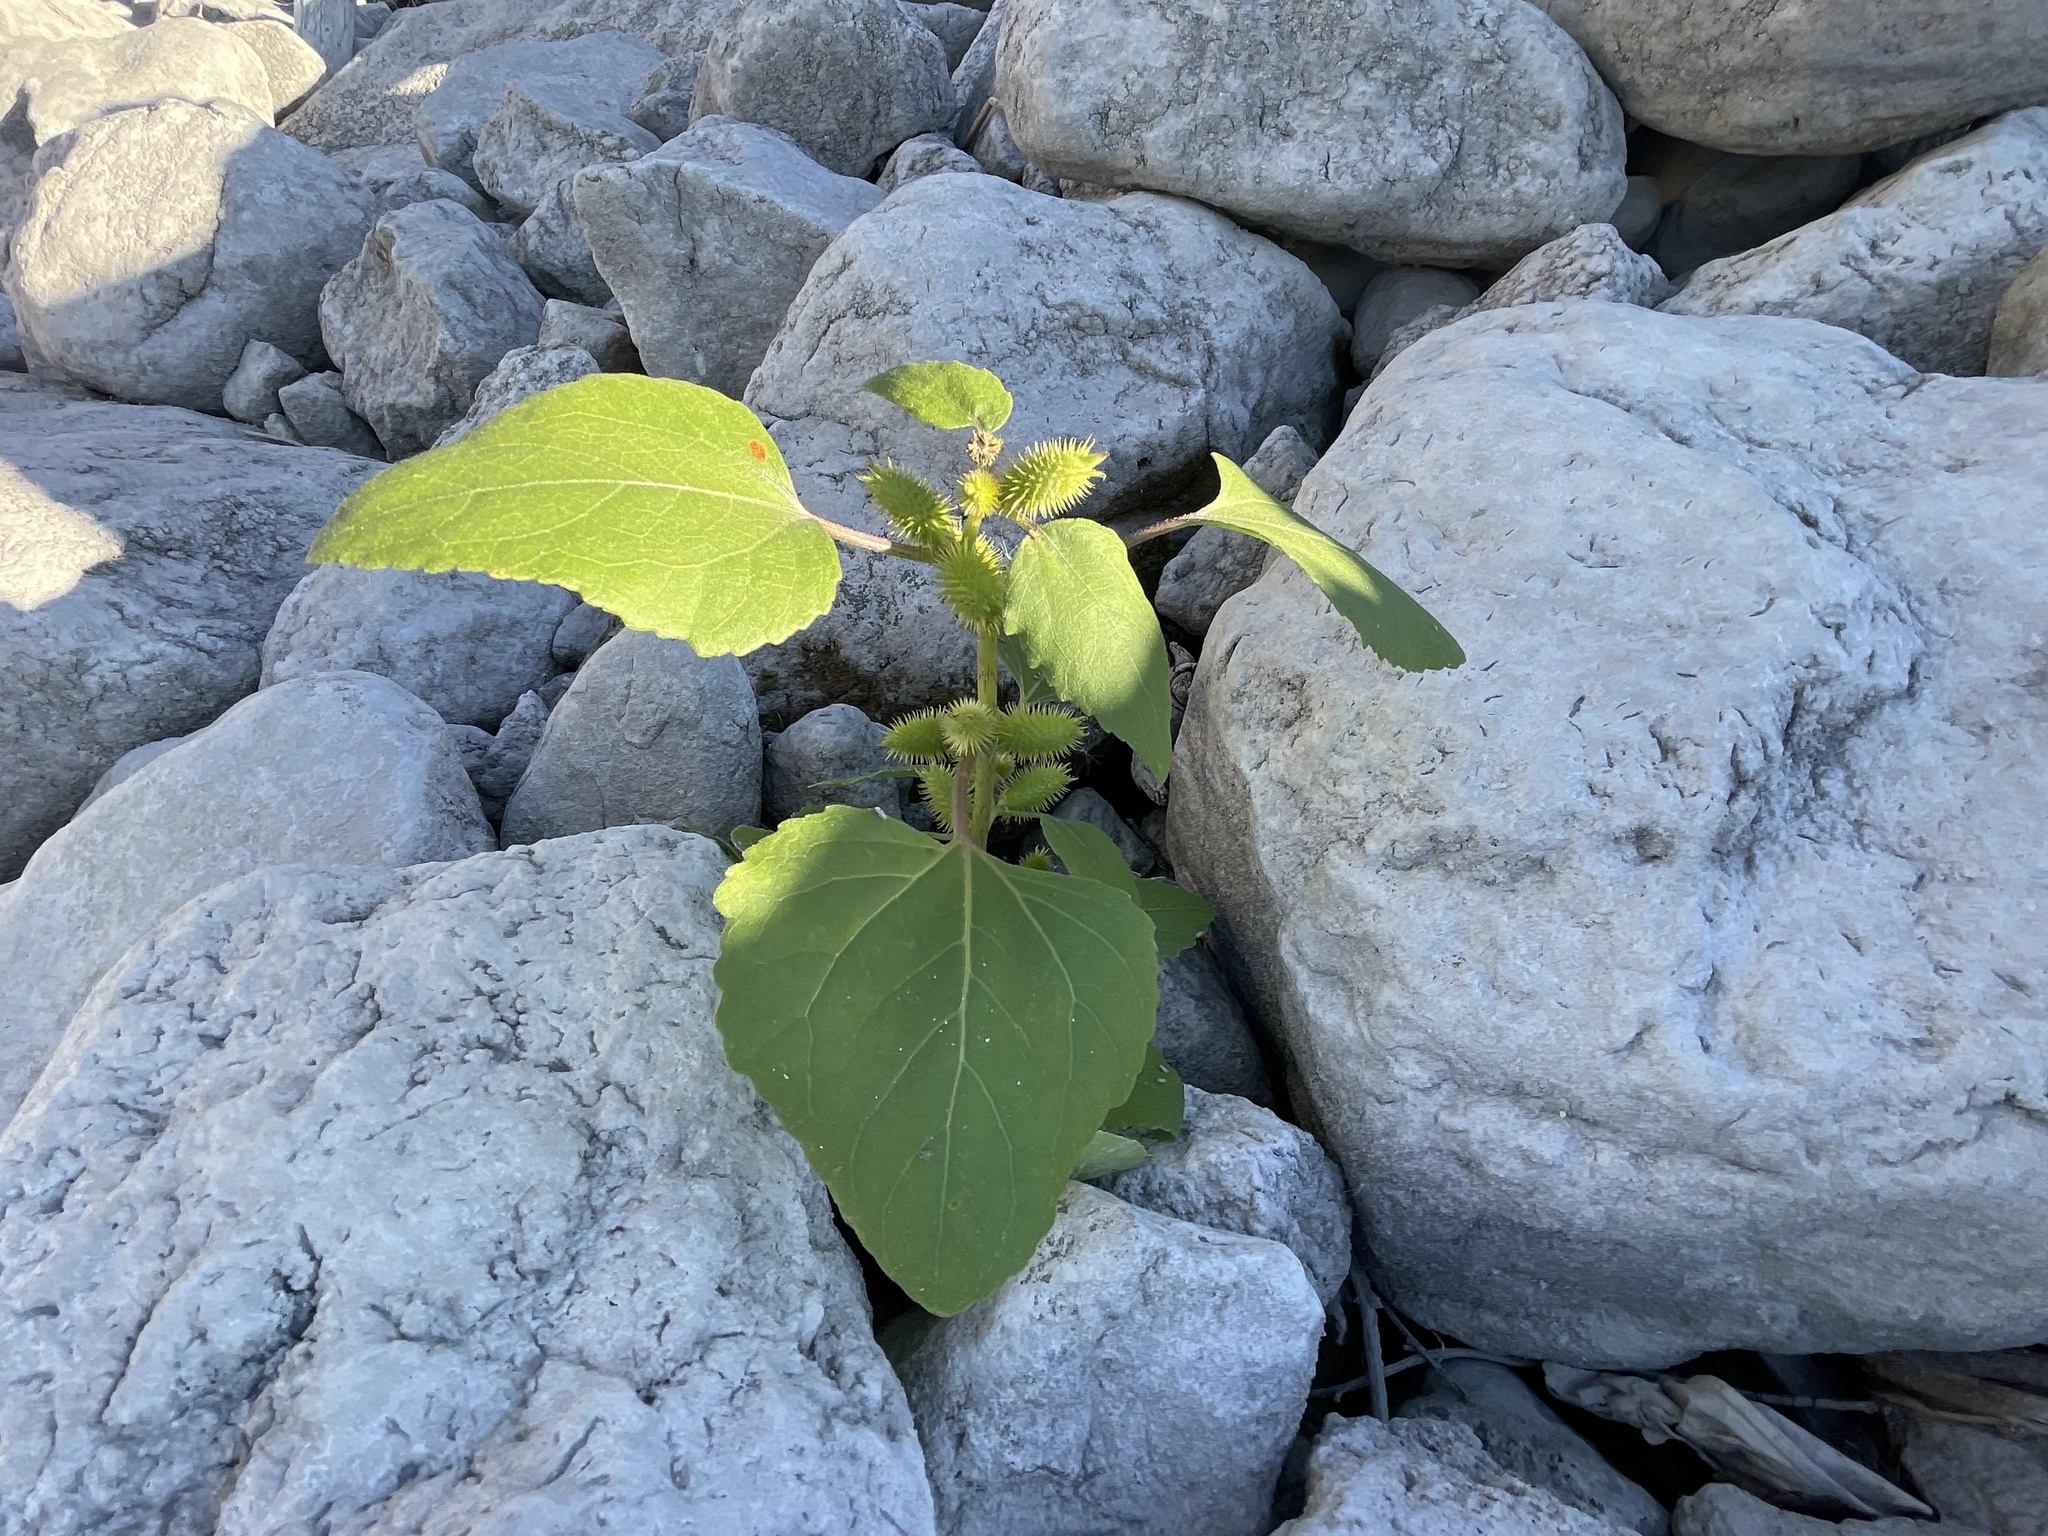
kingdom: Plantae
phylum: Tracheophyta
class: Magnoliopsida
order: Asterales
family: Asteraceae
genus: Xanthium
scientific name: Xanthium strumarium
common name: Rough cocklebur
